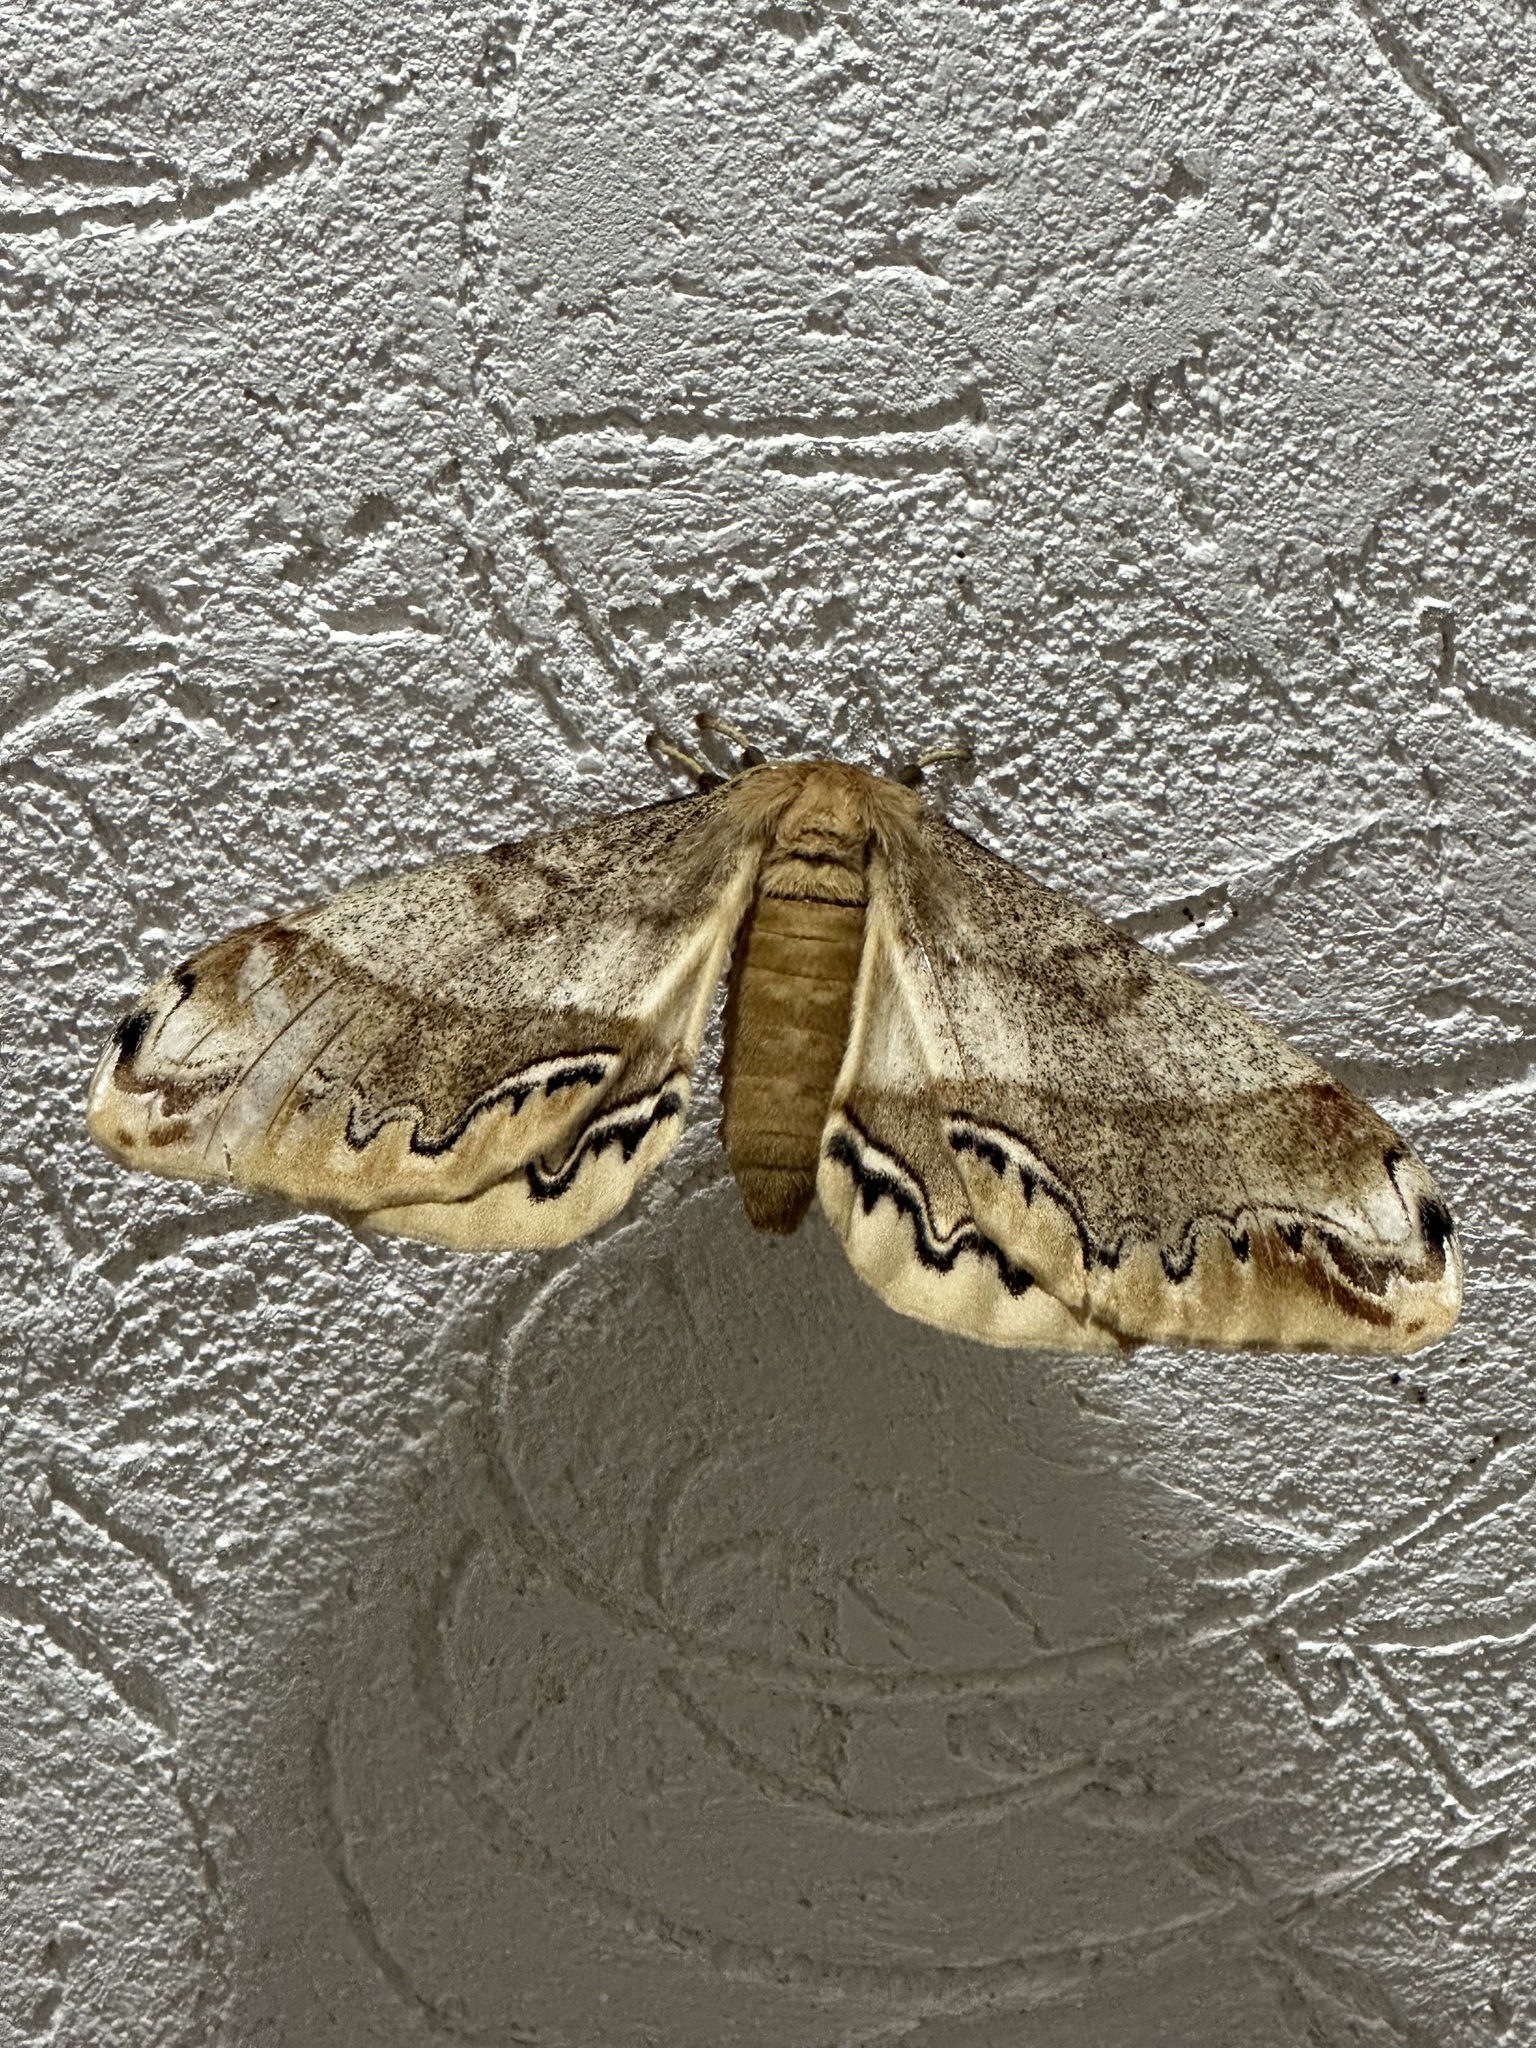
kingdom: Animalia
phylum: Arthropoda
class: Insecta
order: Lepidoptera
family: Saturniidae
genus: Arsenura
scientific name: Arsenura polyodonta
